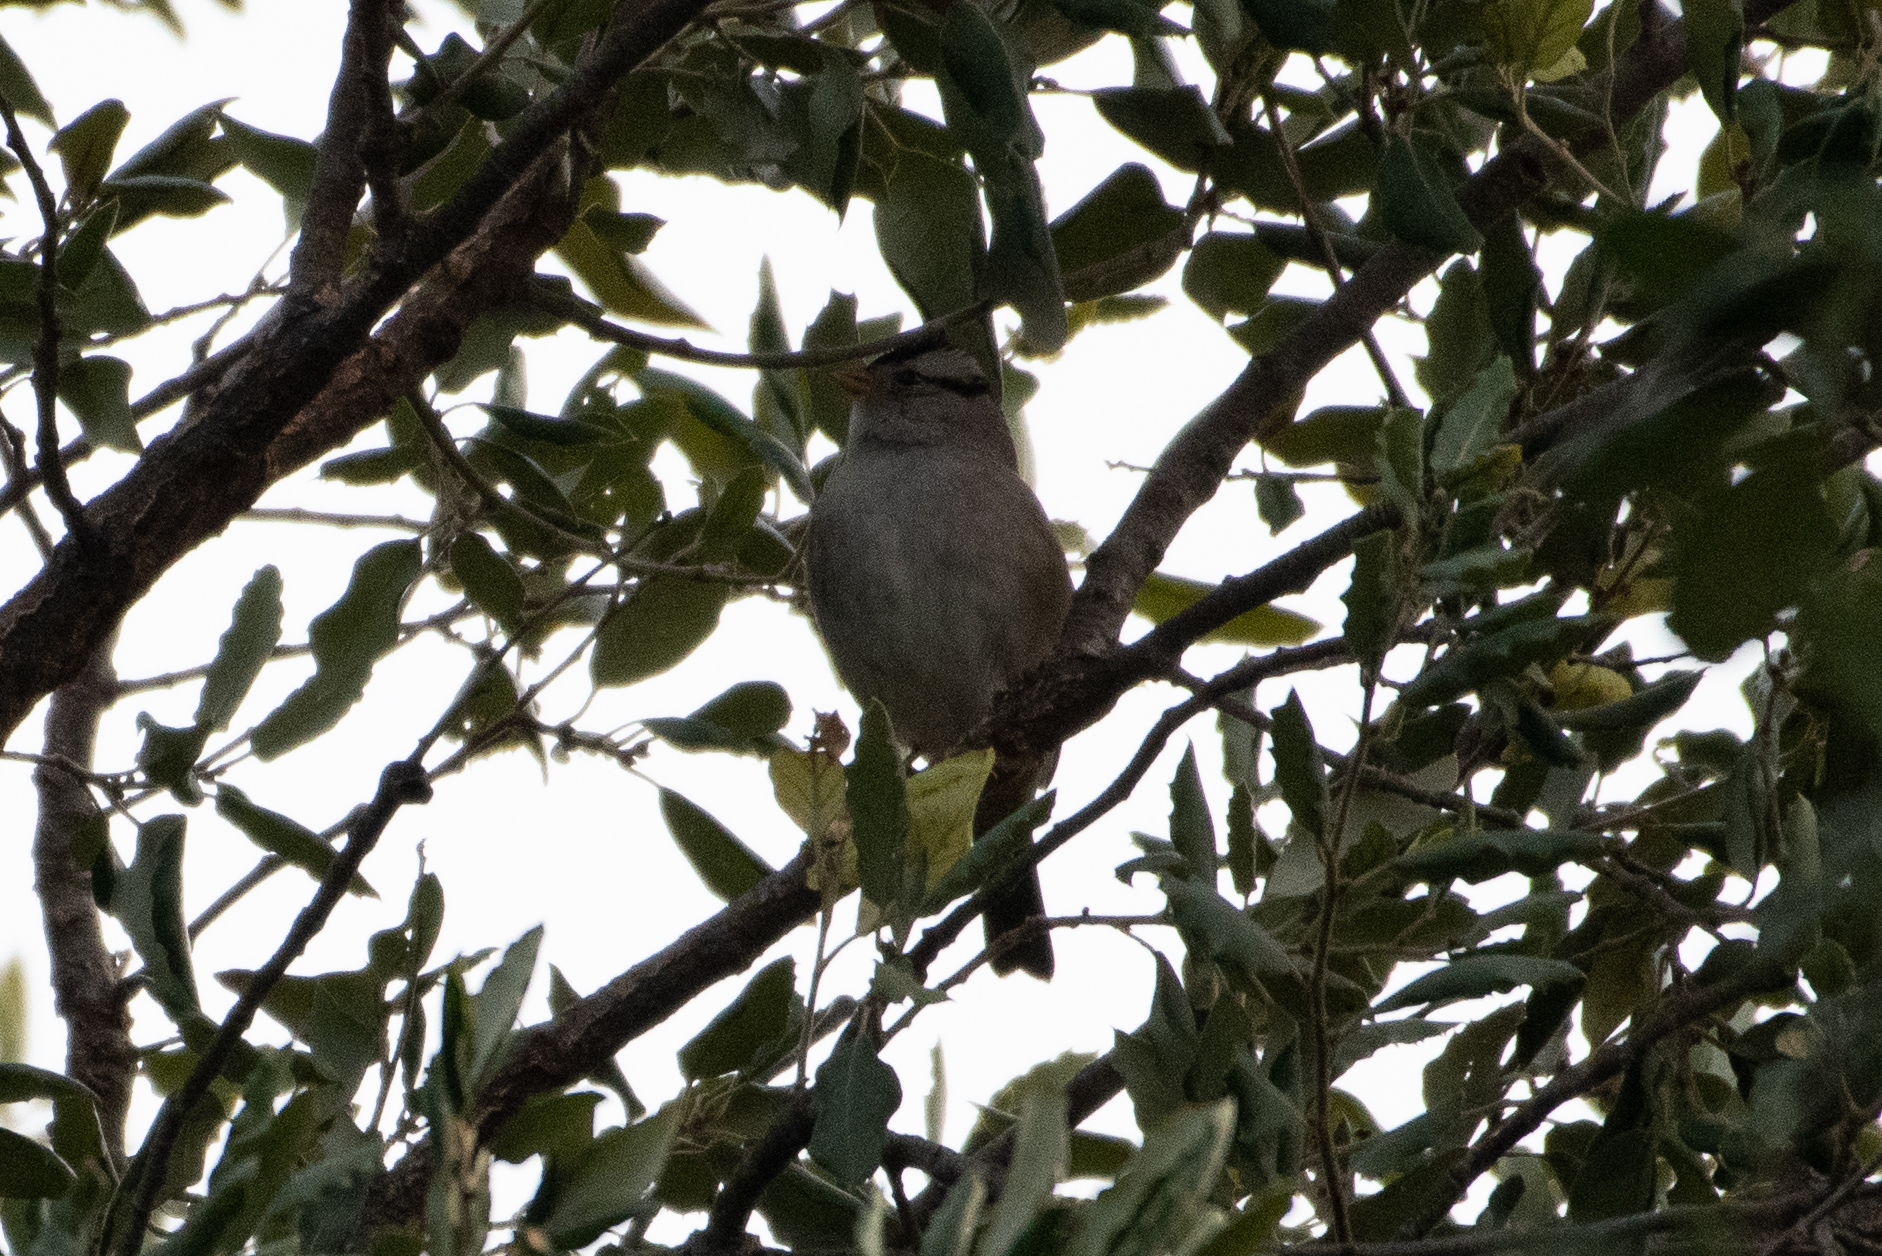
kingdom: Animalia
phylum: Chordata
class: Aves
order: Passeriformes
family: Passerellidae
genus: Zonotrichia
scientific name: Zonotrichia leucophrys
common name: White-crowned sparrow
